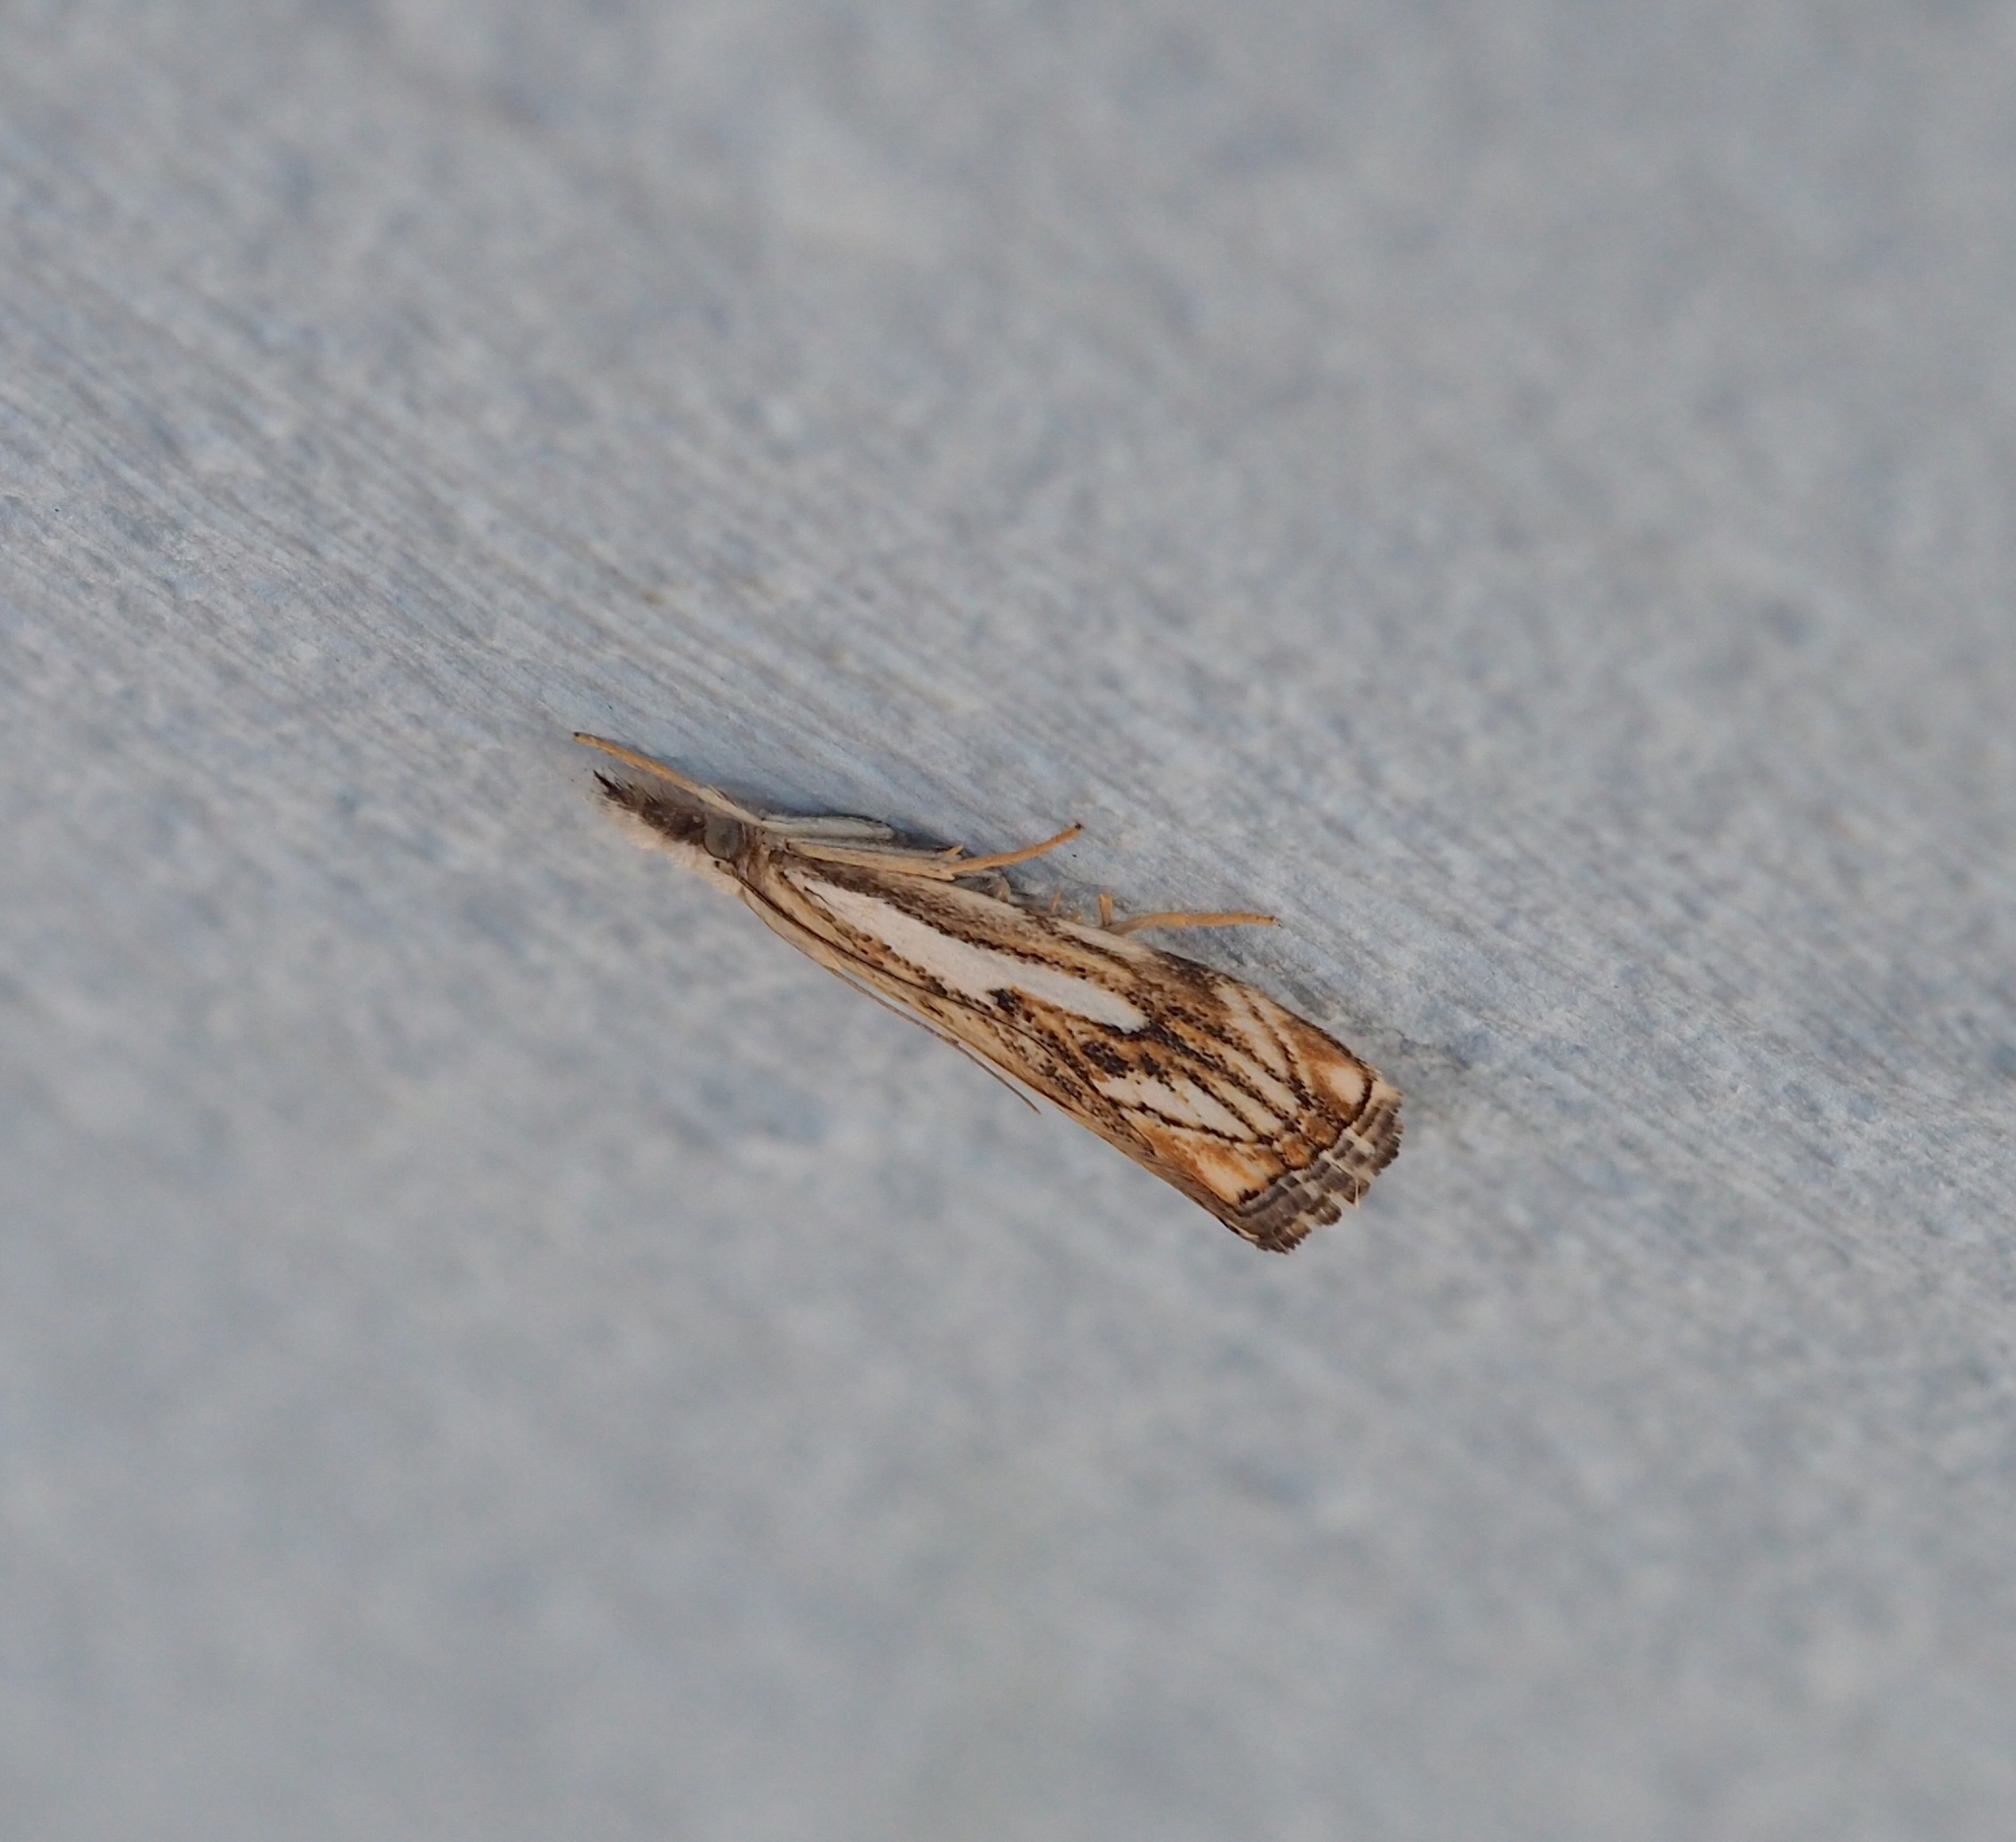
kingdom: Animalia
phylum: Arthropoda
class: Insecta
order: Lepidoptera
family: Crambidae
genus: Catoptria
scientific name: Catoptria falsella
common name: Chequered grass-veneer
